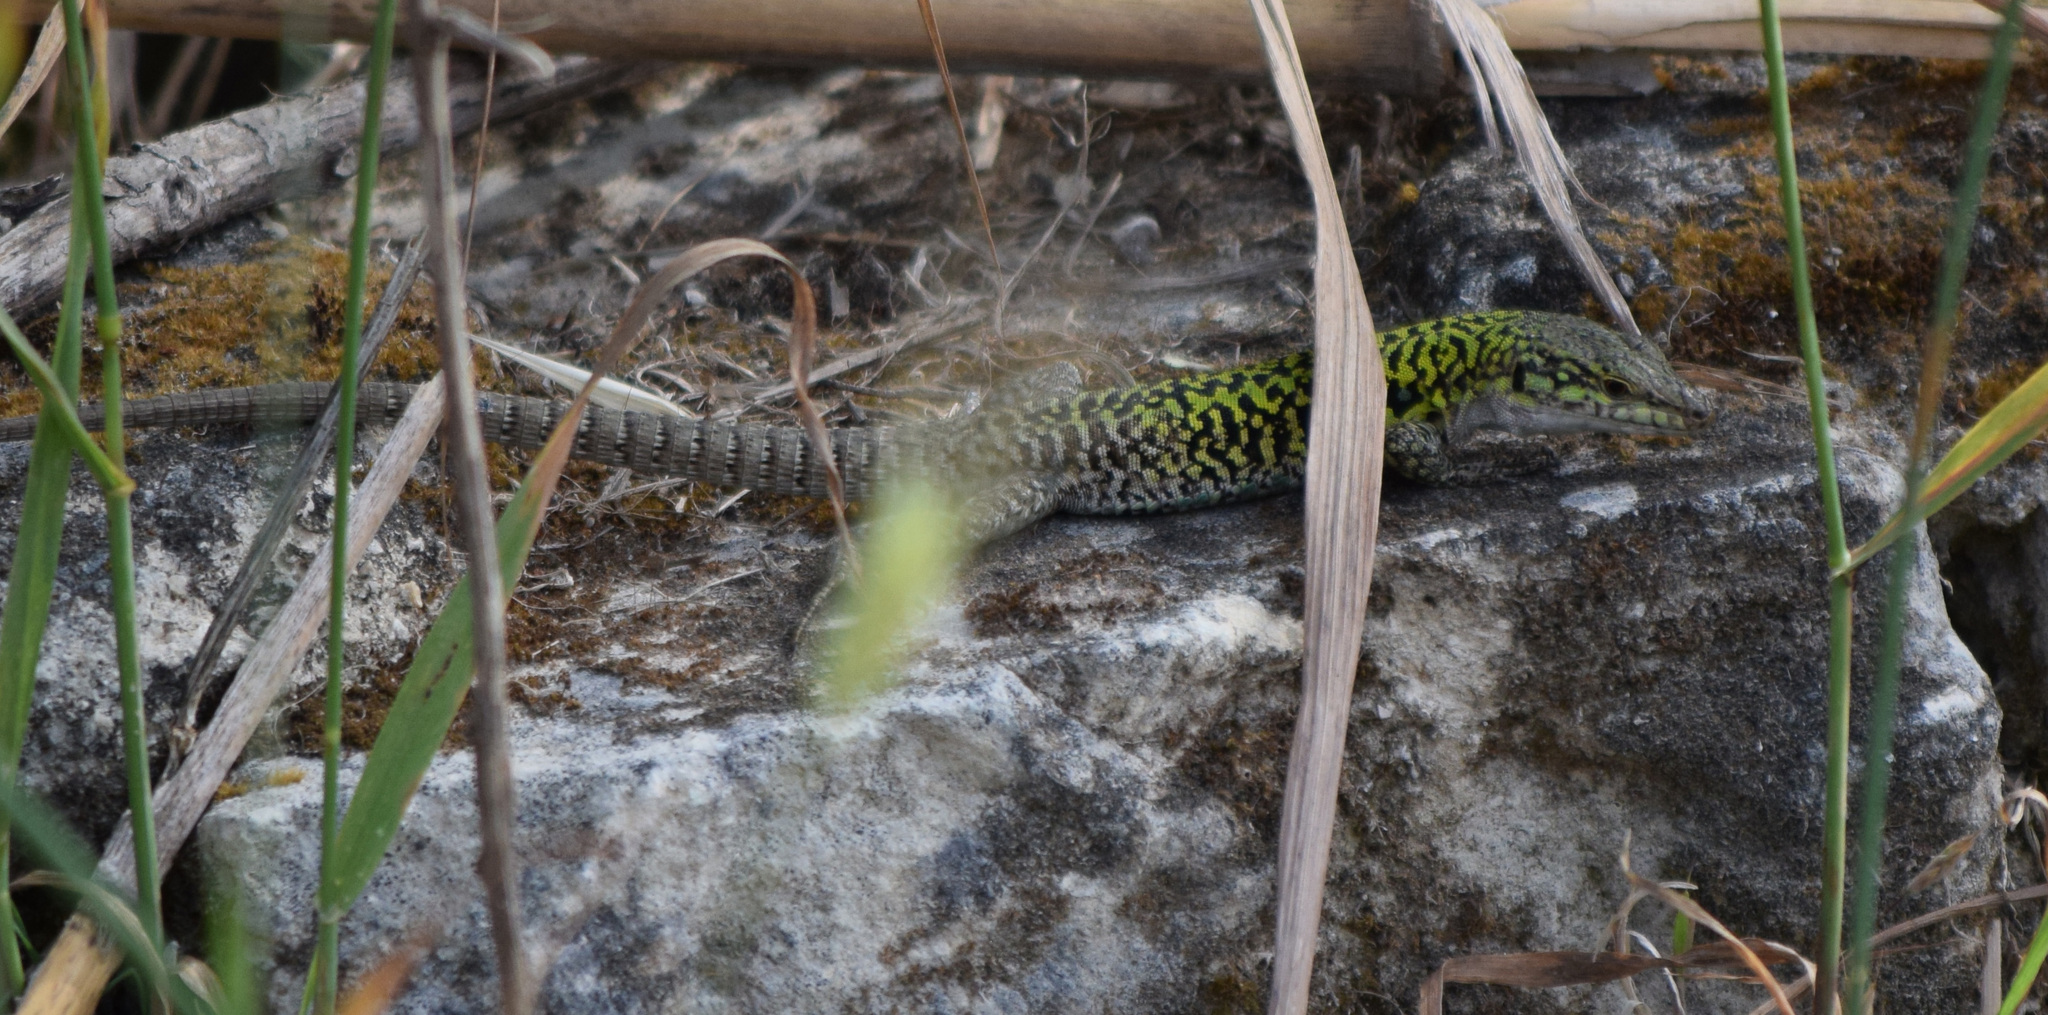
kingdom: Animalia
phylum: Chordata
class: Squamata
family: Lacertidae
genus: Podarcis
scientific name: Podarcis siculus
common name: Italian wall lizard
